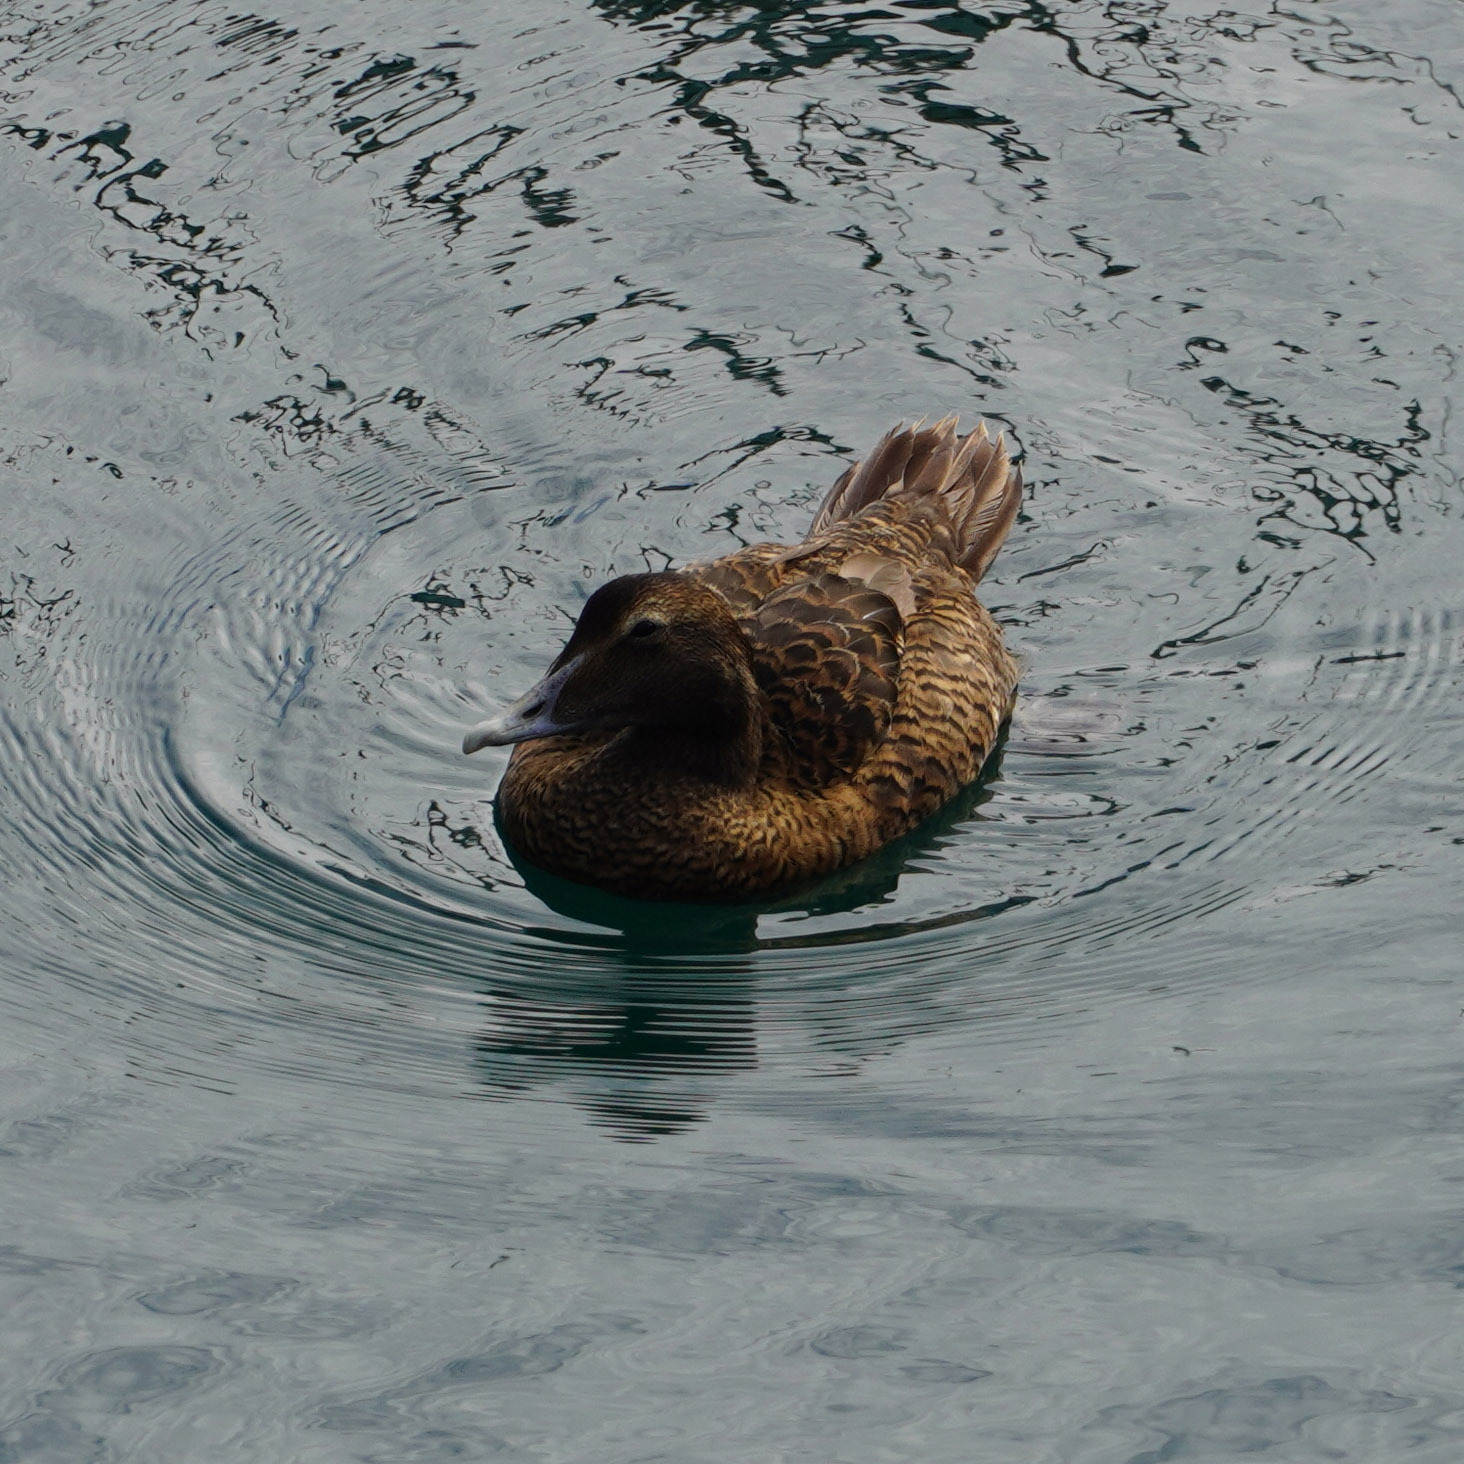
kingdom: Animalia
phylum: Chordata
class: Aves
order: Anseriformes
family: Anatidae
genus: Somateria
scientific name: Somateria mollissima
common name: Common eider
